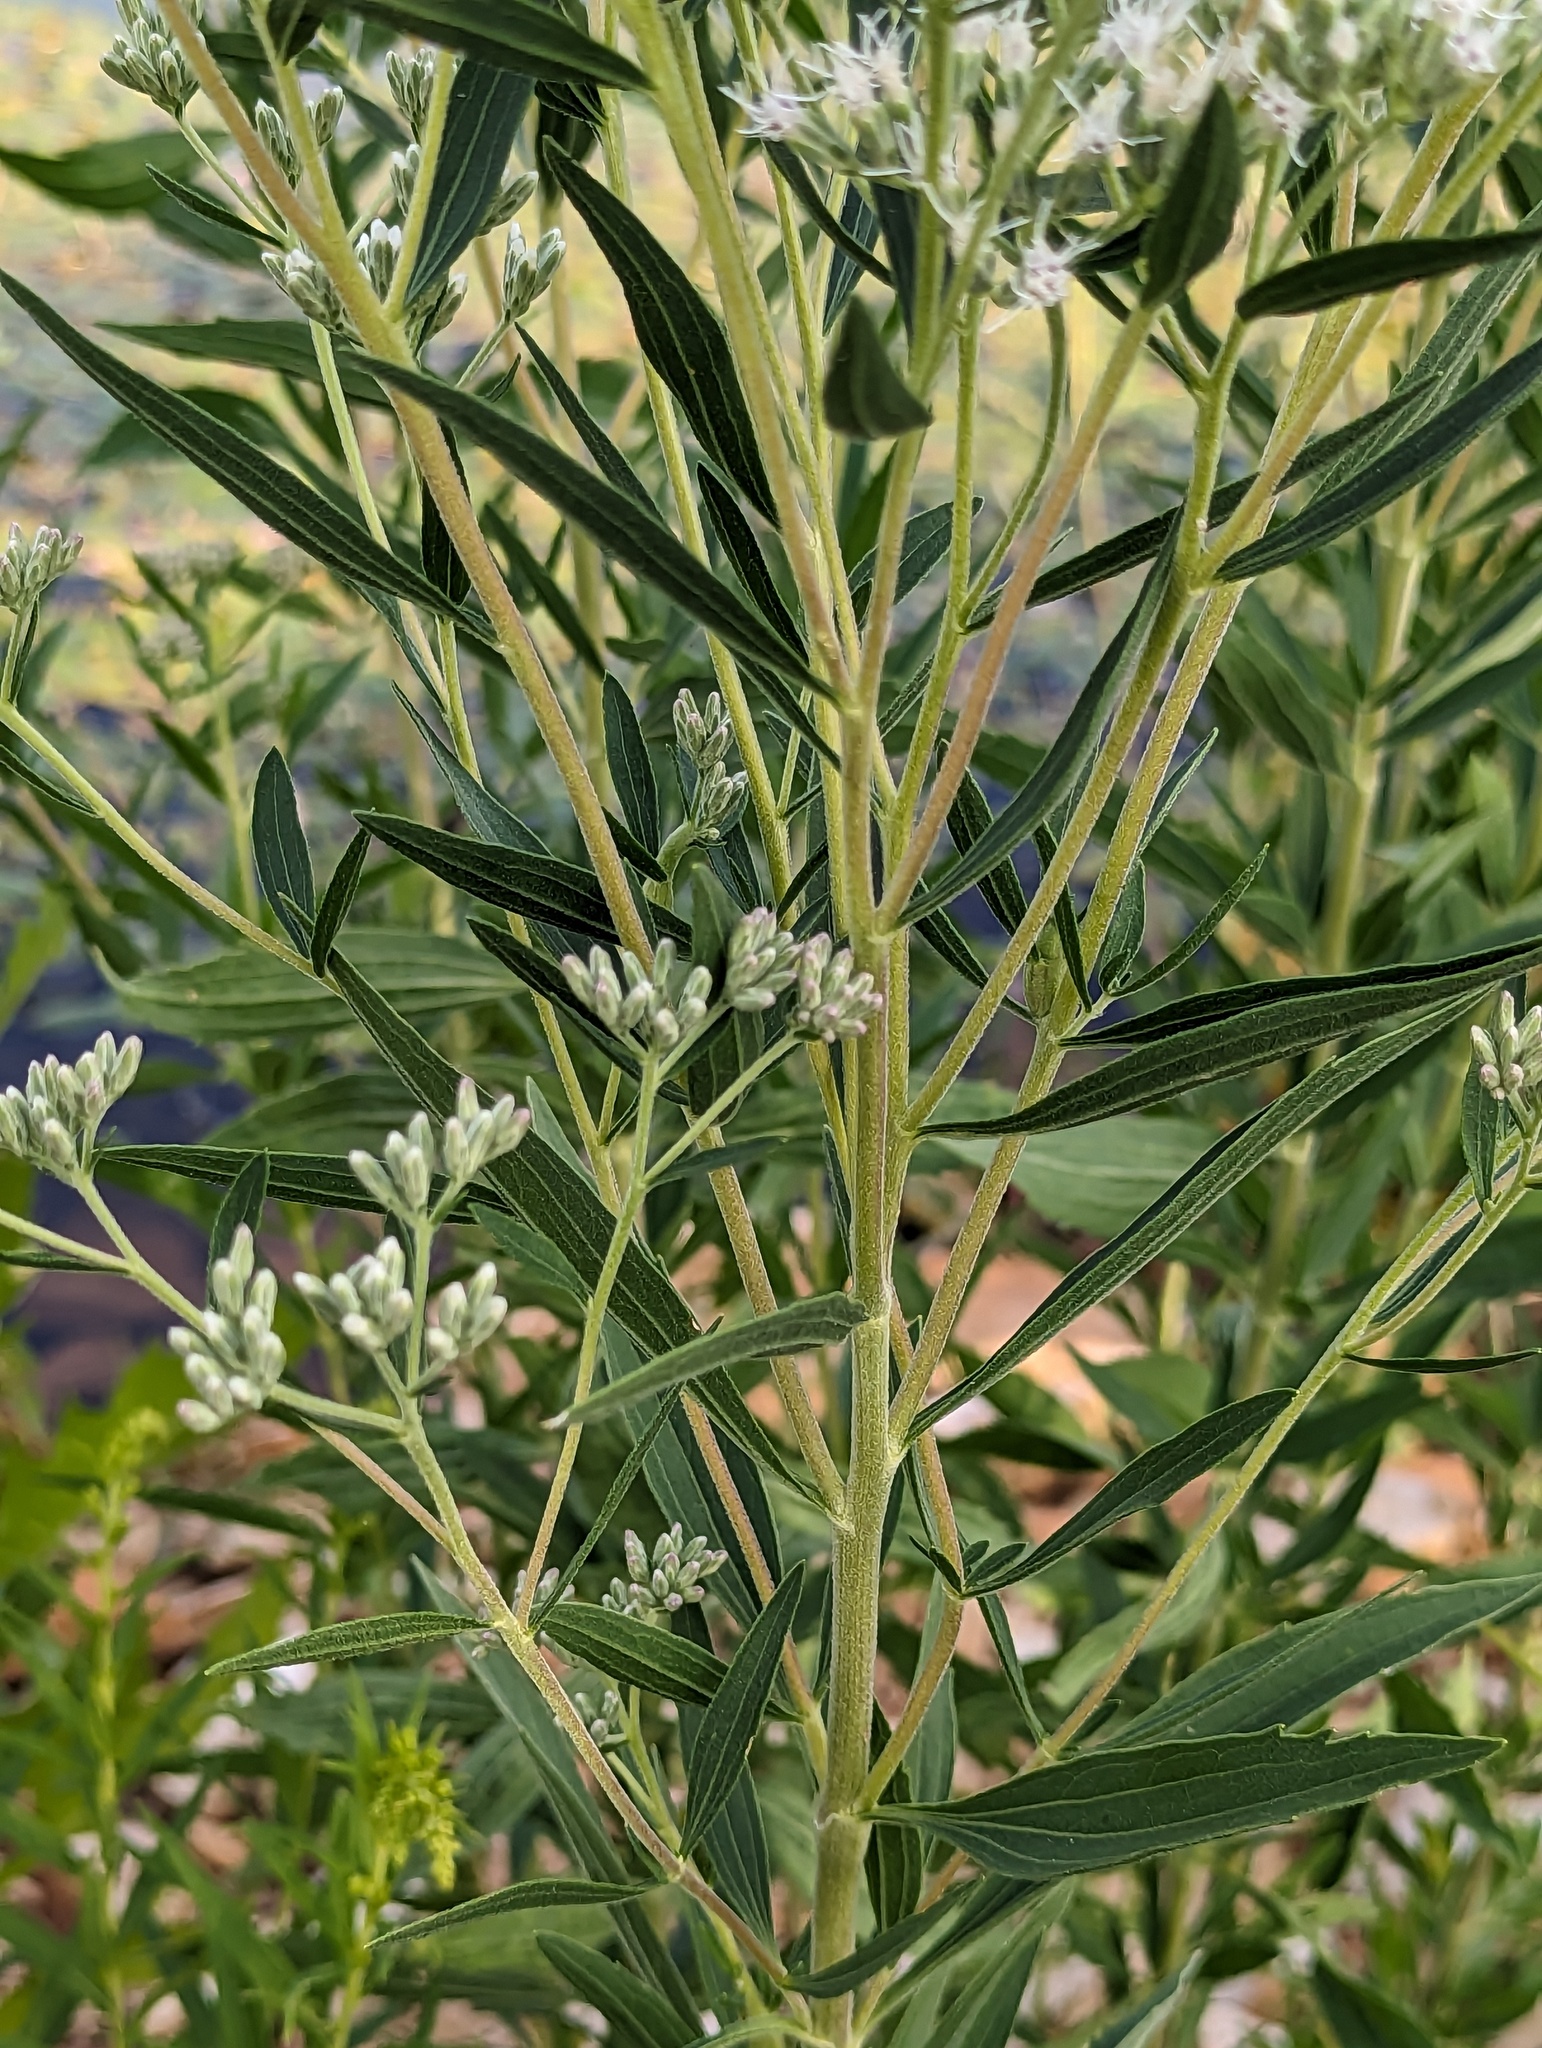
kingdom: Plantae
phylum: Tracheophyta
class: Magnoliopsida
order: Asterales
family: Asteraceae
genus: Eupatorium
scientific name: Eupatorium altissimum
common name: Tall thoroughwort
